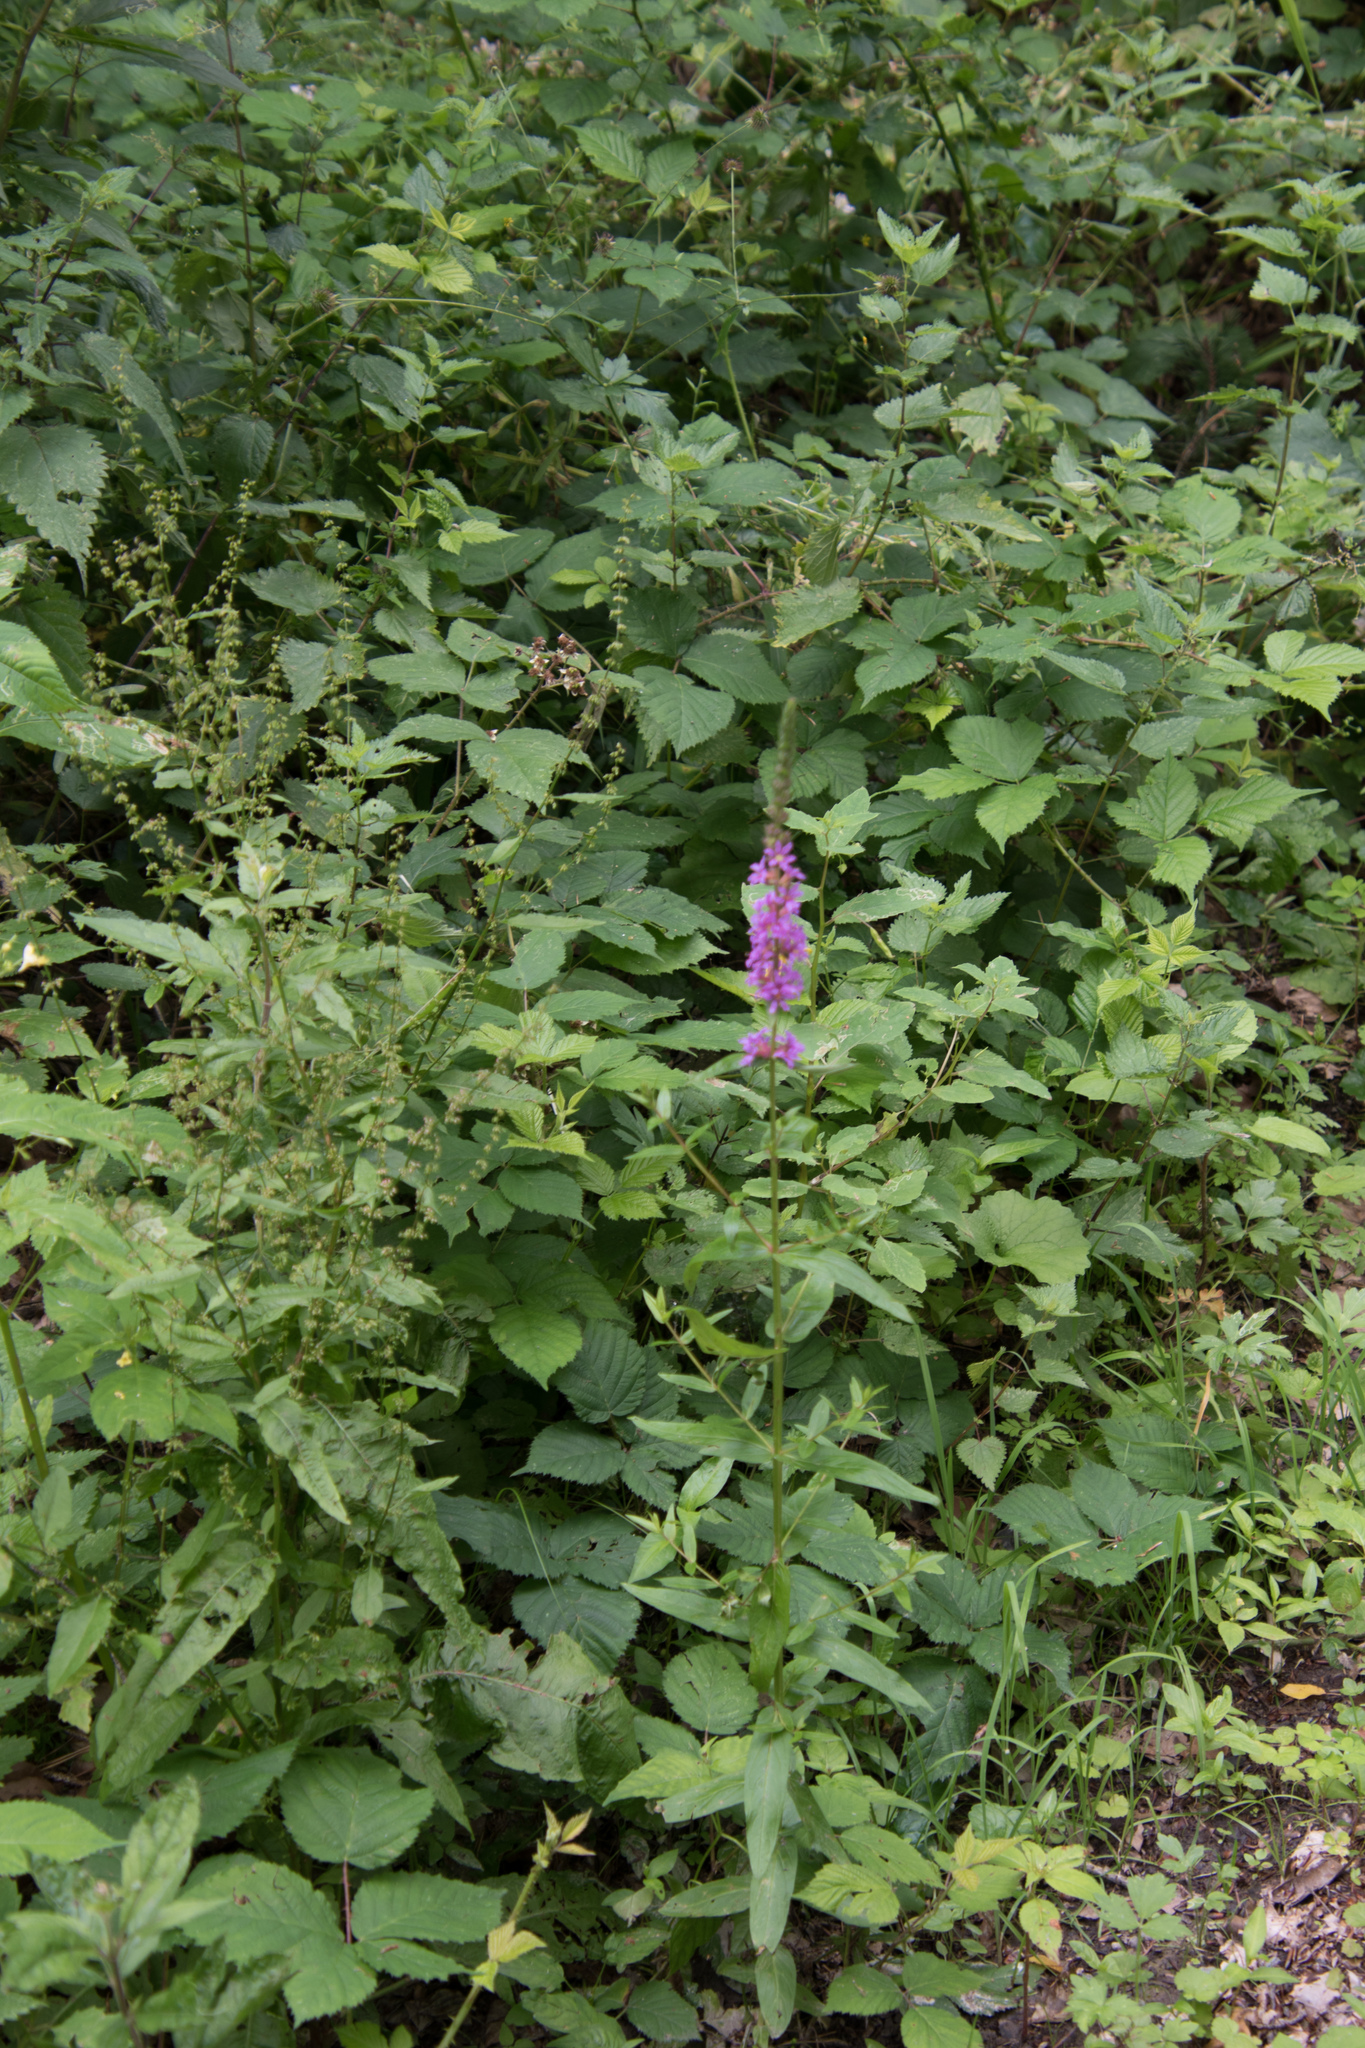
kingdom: Plantae
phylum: Tracheophyta
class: Magnoliopsida
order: Myrtales
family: Lythraceae
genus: Lythrum
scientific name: Lythrum salicaria
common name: Purple loosestrife
